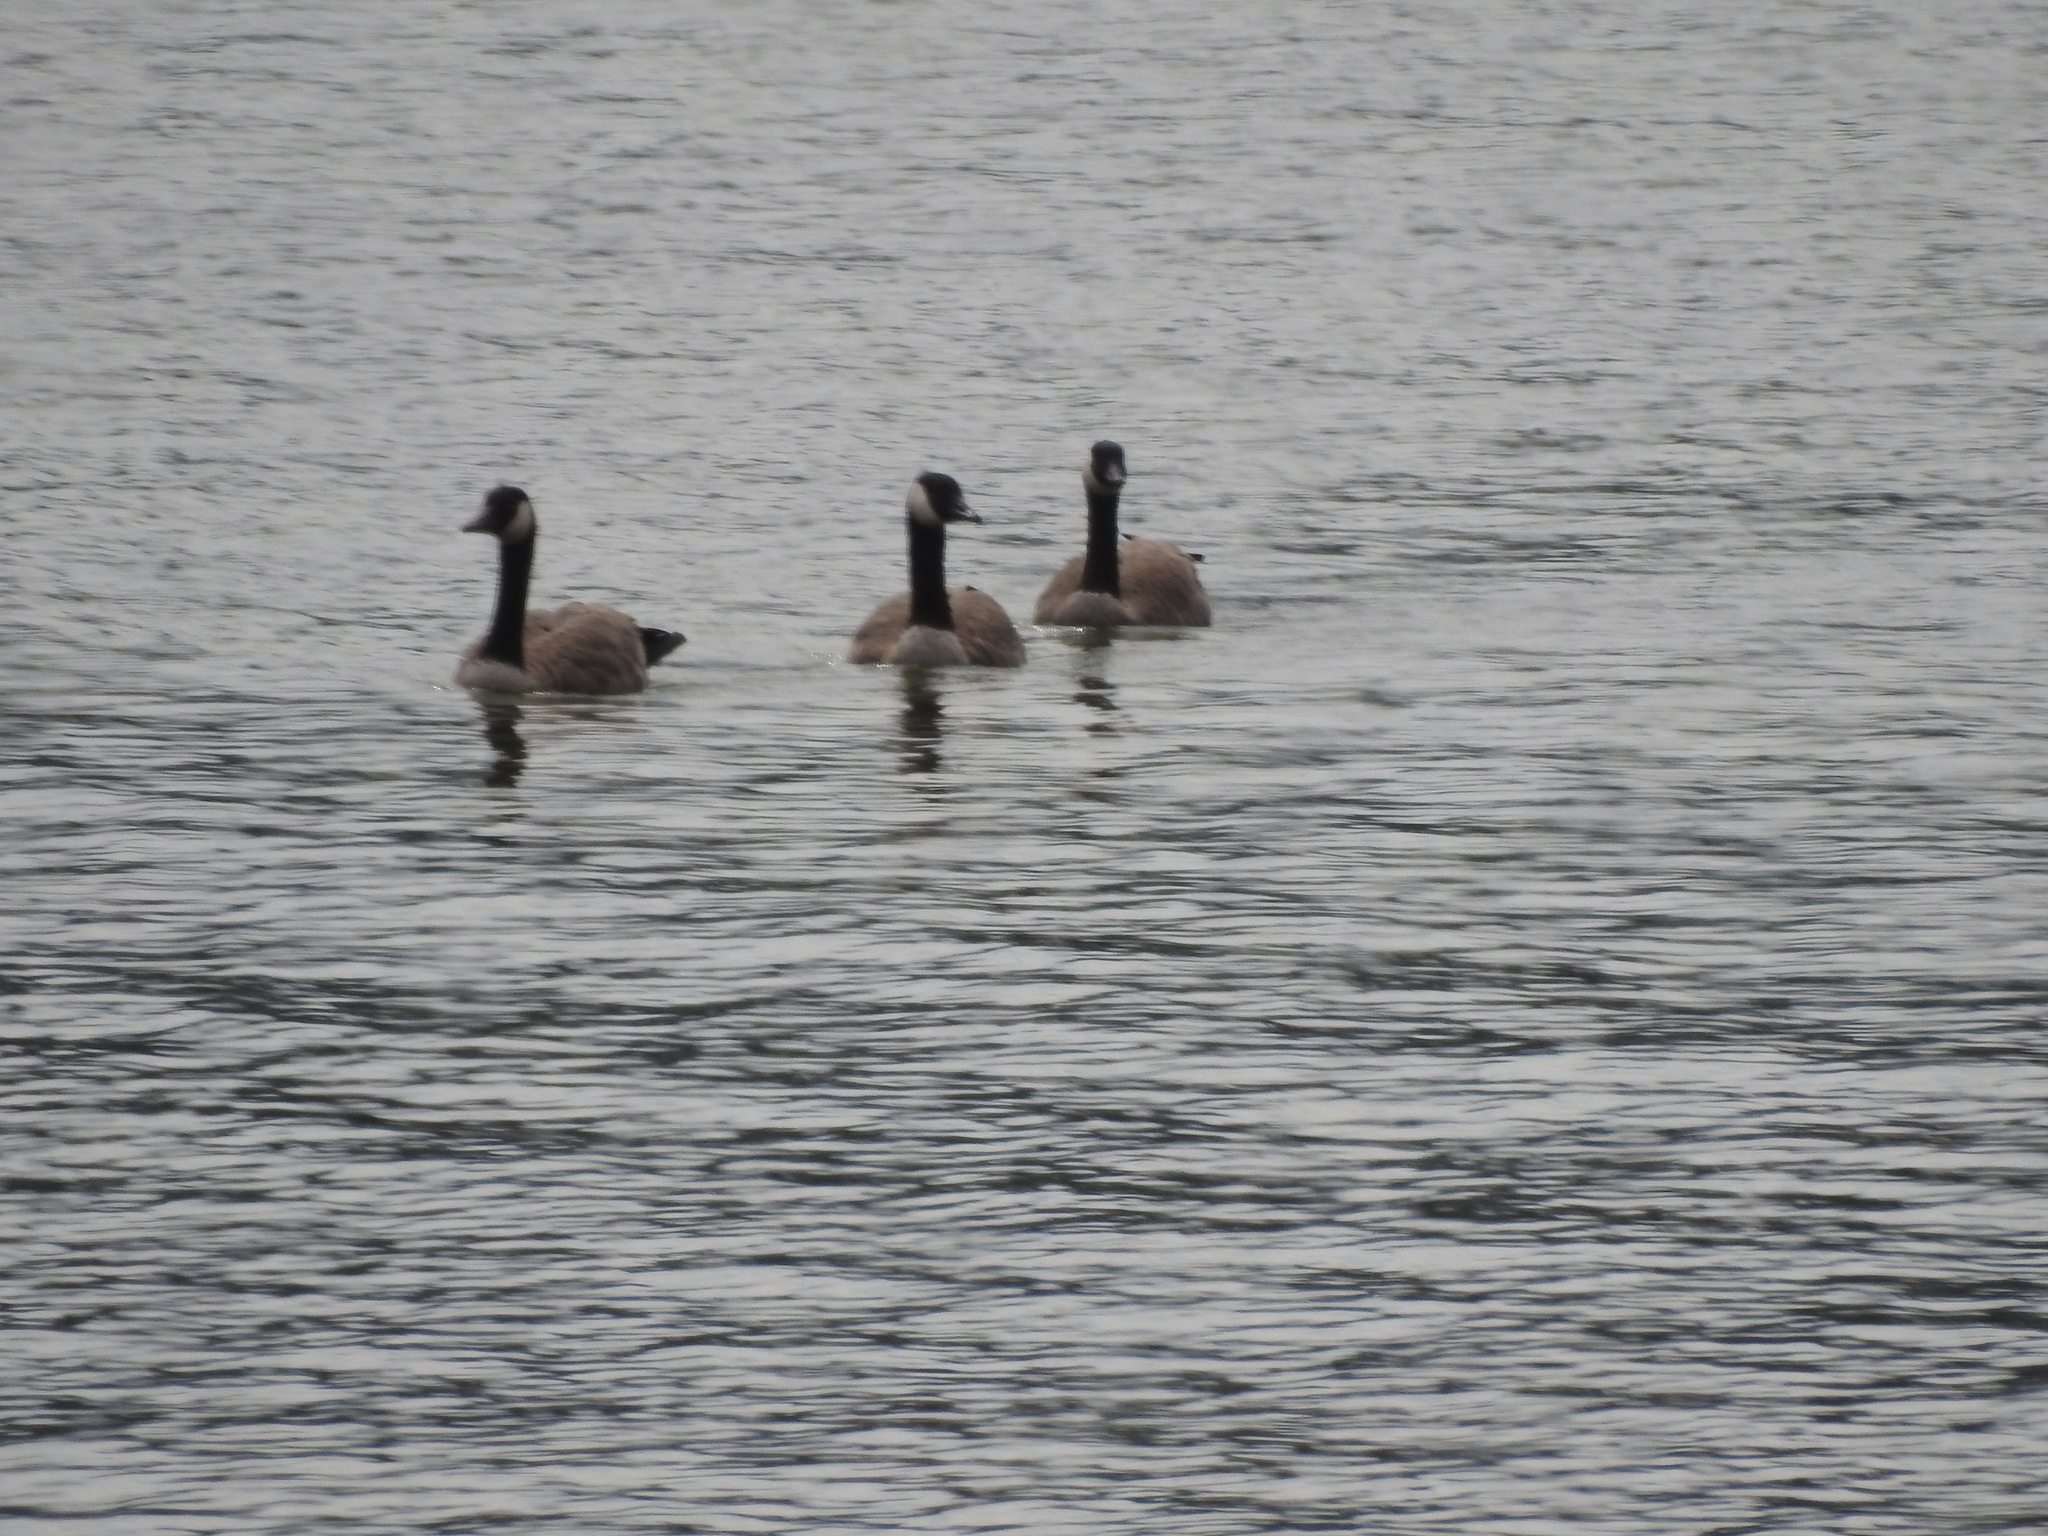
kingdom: Animalia
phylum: Chordata
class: Aves
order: Anseriformes
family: Anatidae
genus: Branta
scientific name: Branta canadensis
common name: Canada goose
